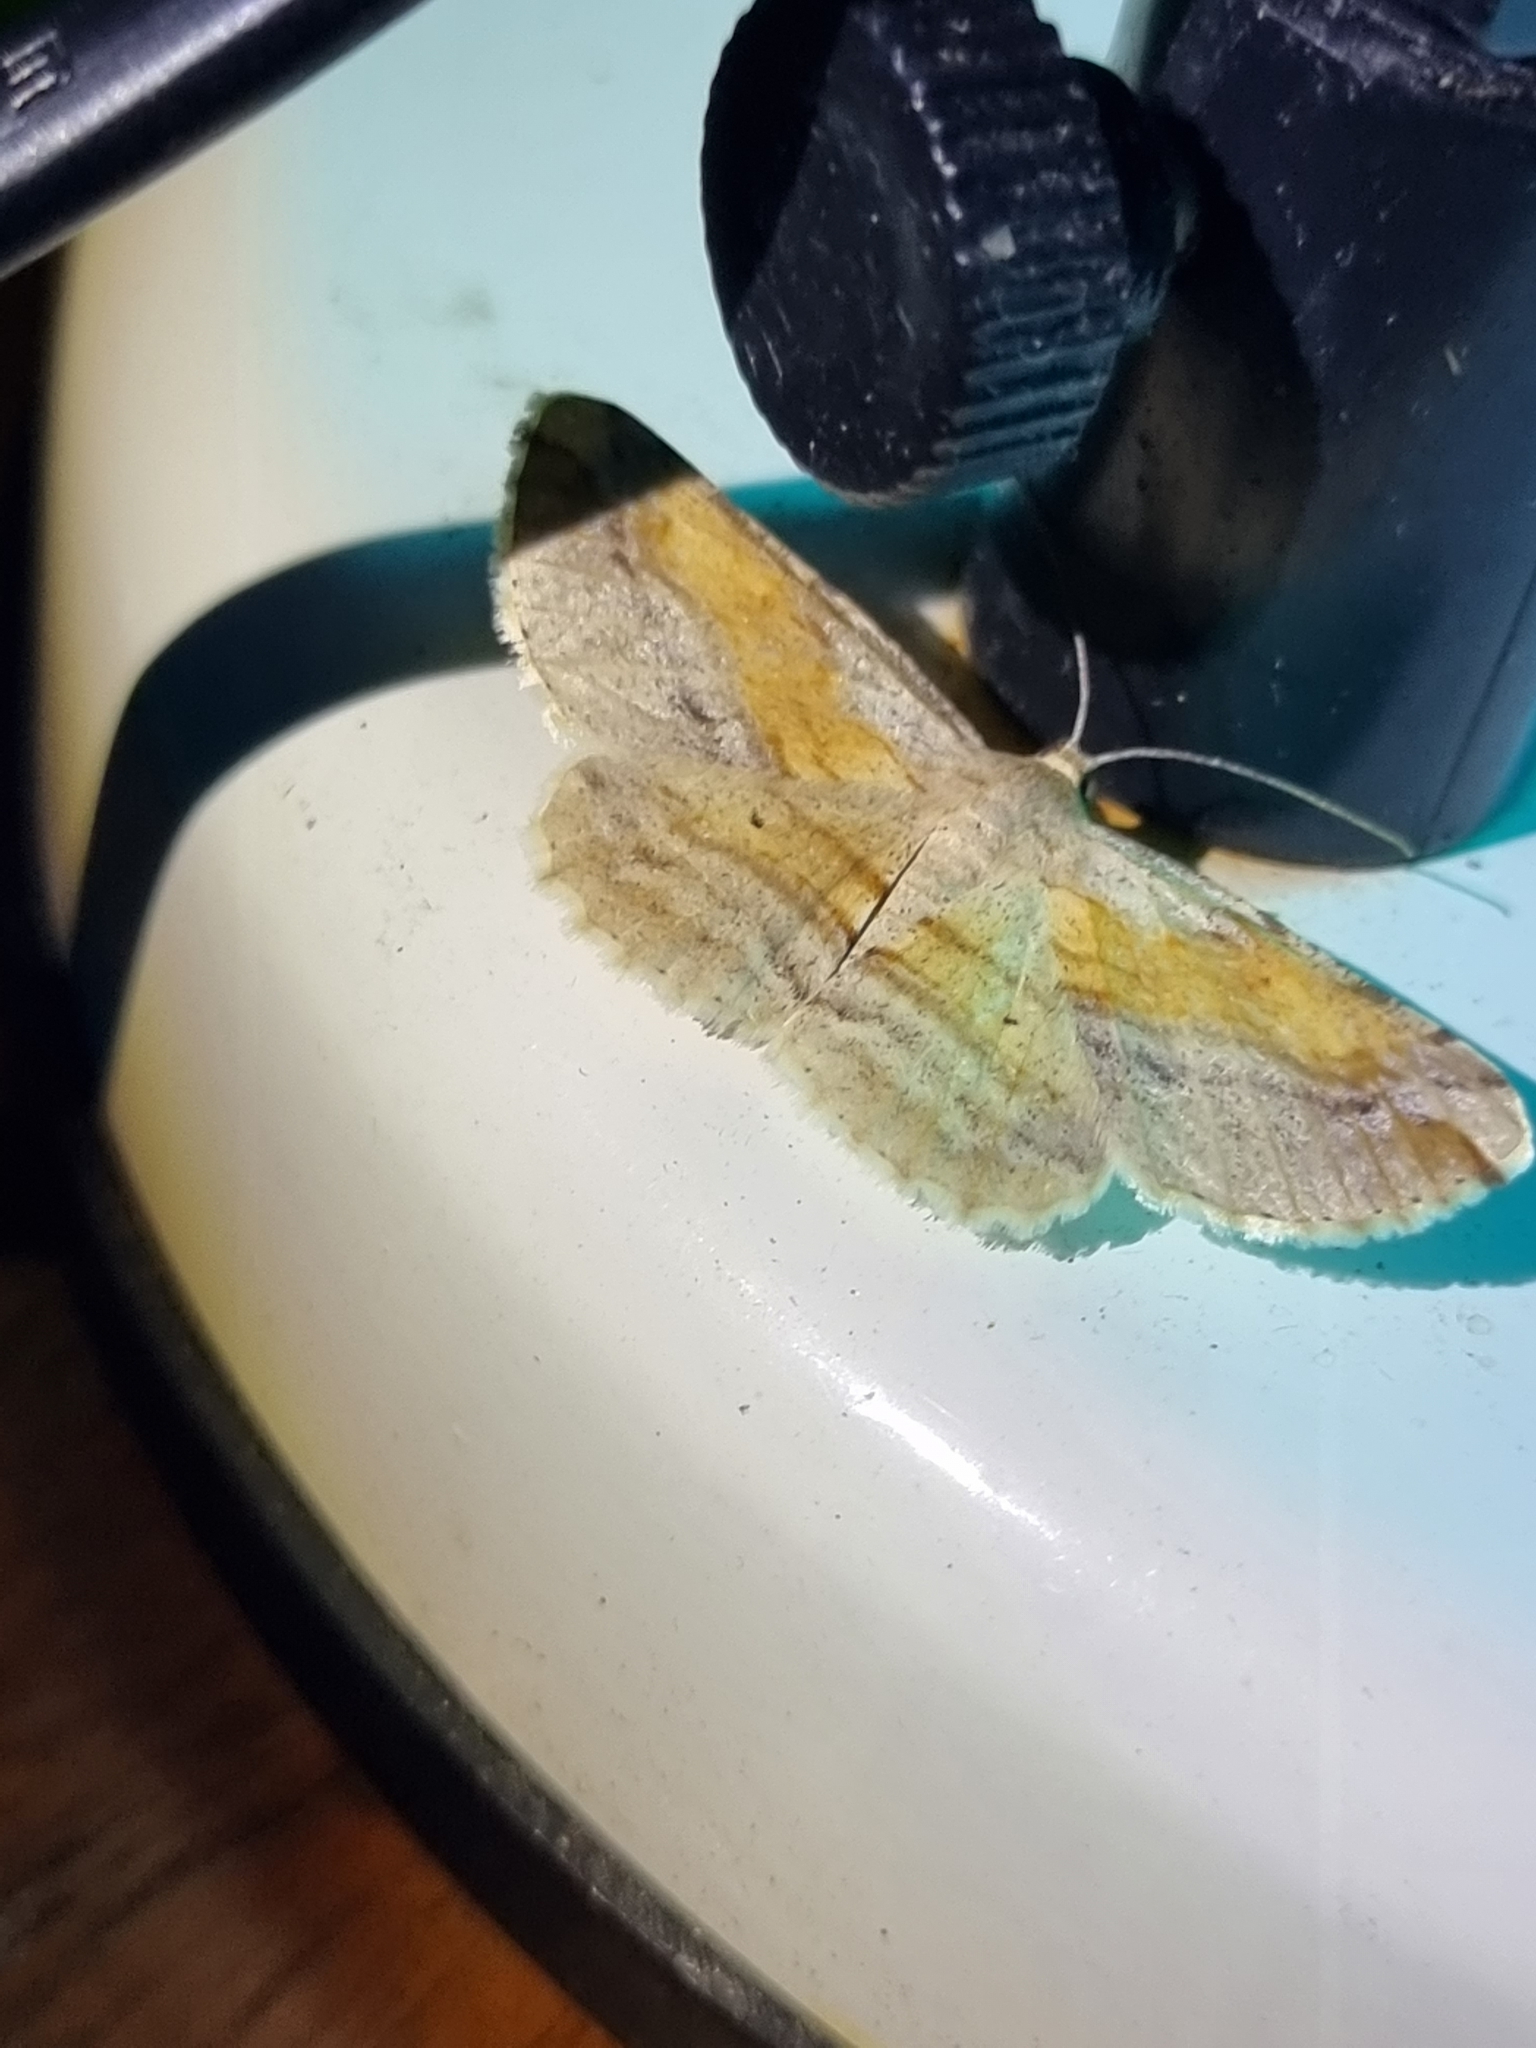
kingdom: Animalia
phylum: Arthropoda
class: Insecta
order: Lepidoptera
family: Geometridae
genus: Syneora
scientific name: Syneora lithina
